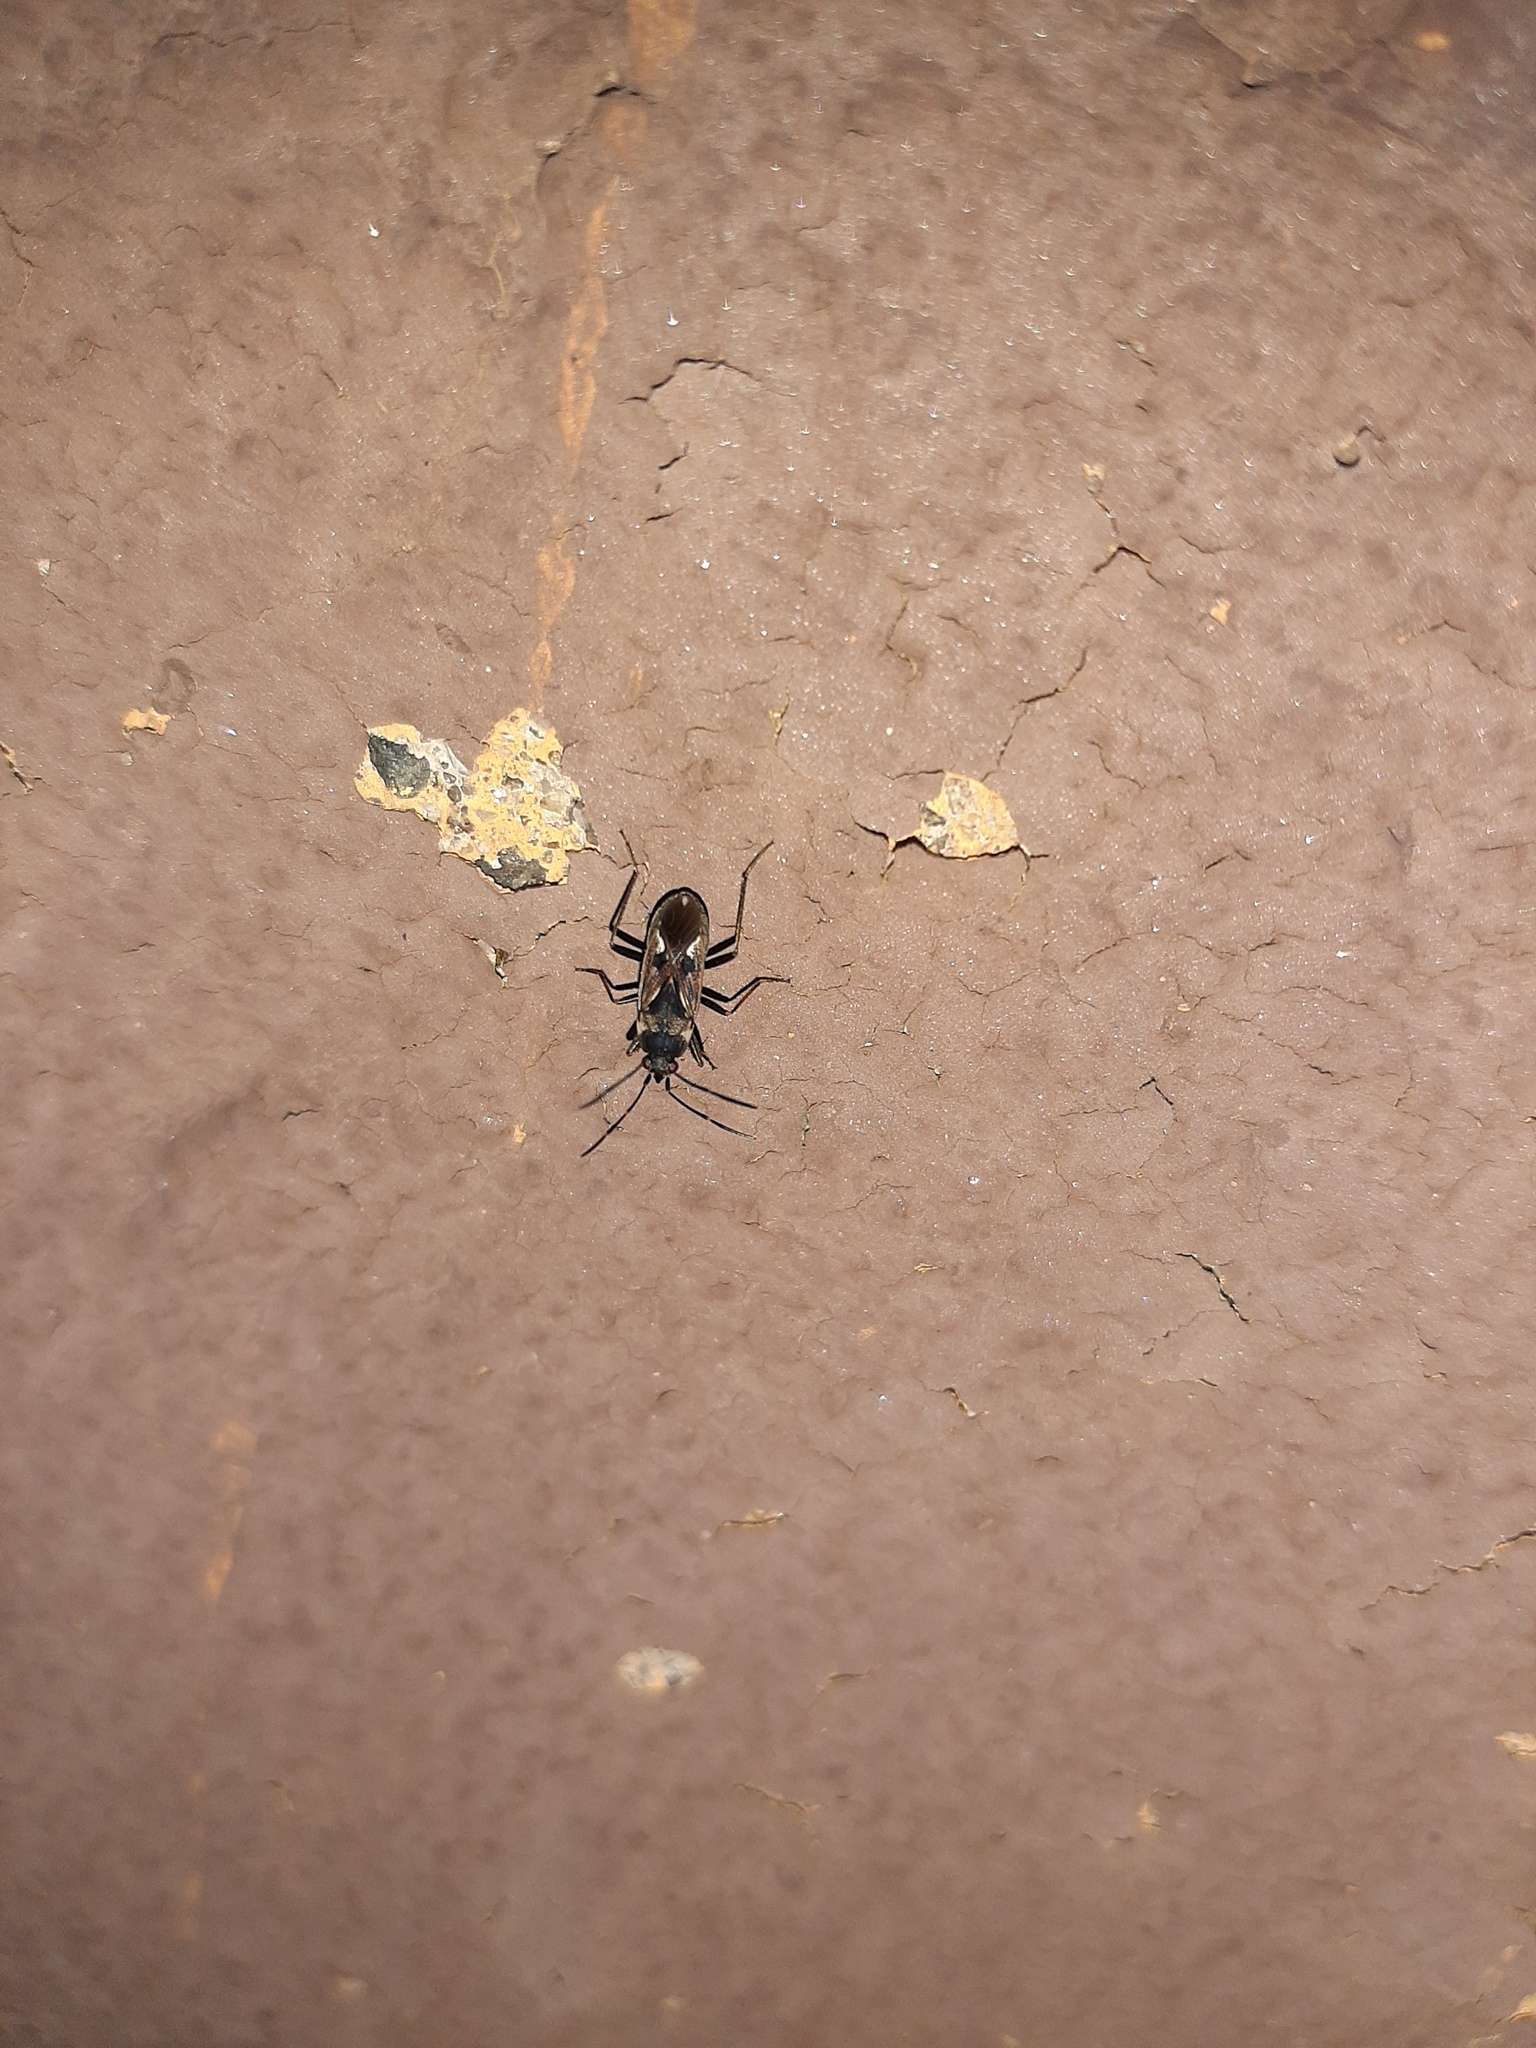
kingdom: Animalia
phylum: Arthropoda
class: Insecta
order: Hemiptera
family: Rhyparochromidae
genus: Rhyparochromus
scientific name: Rhyparochromus vulgaris
